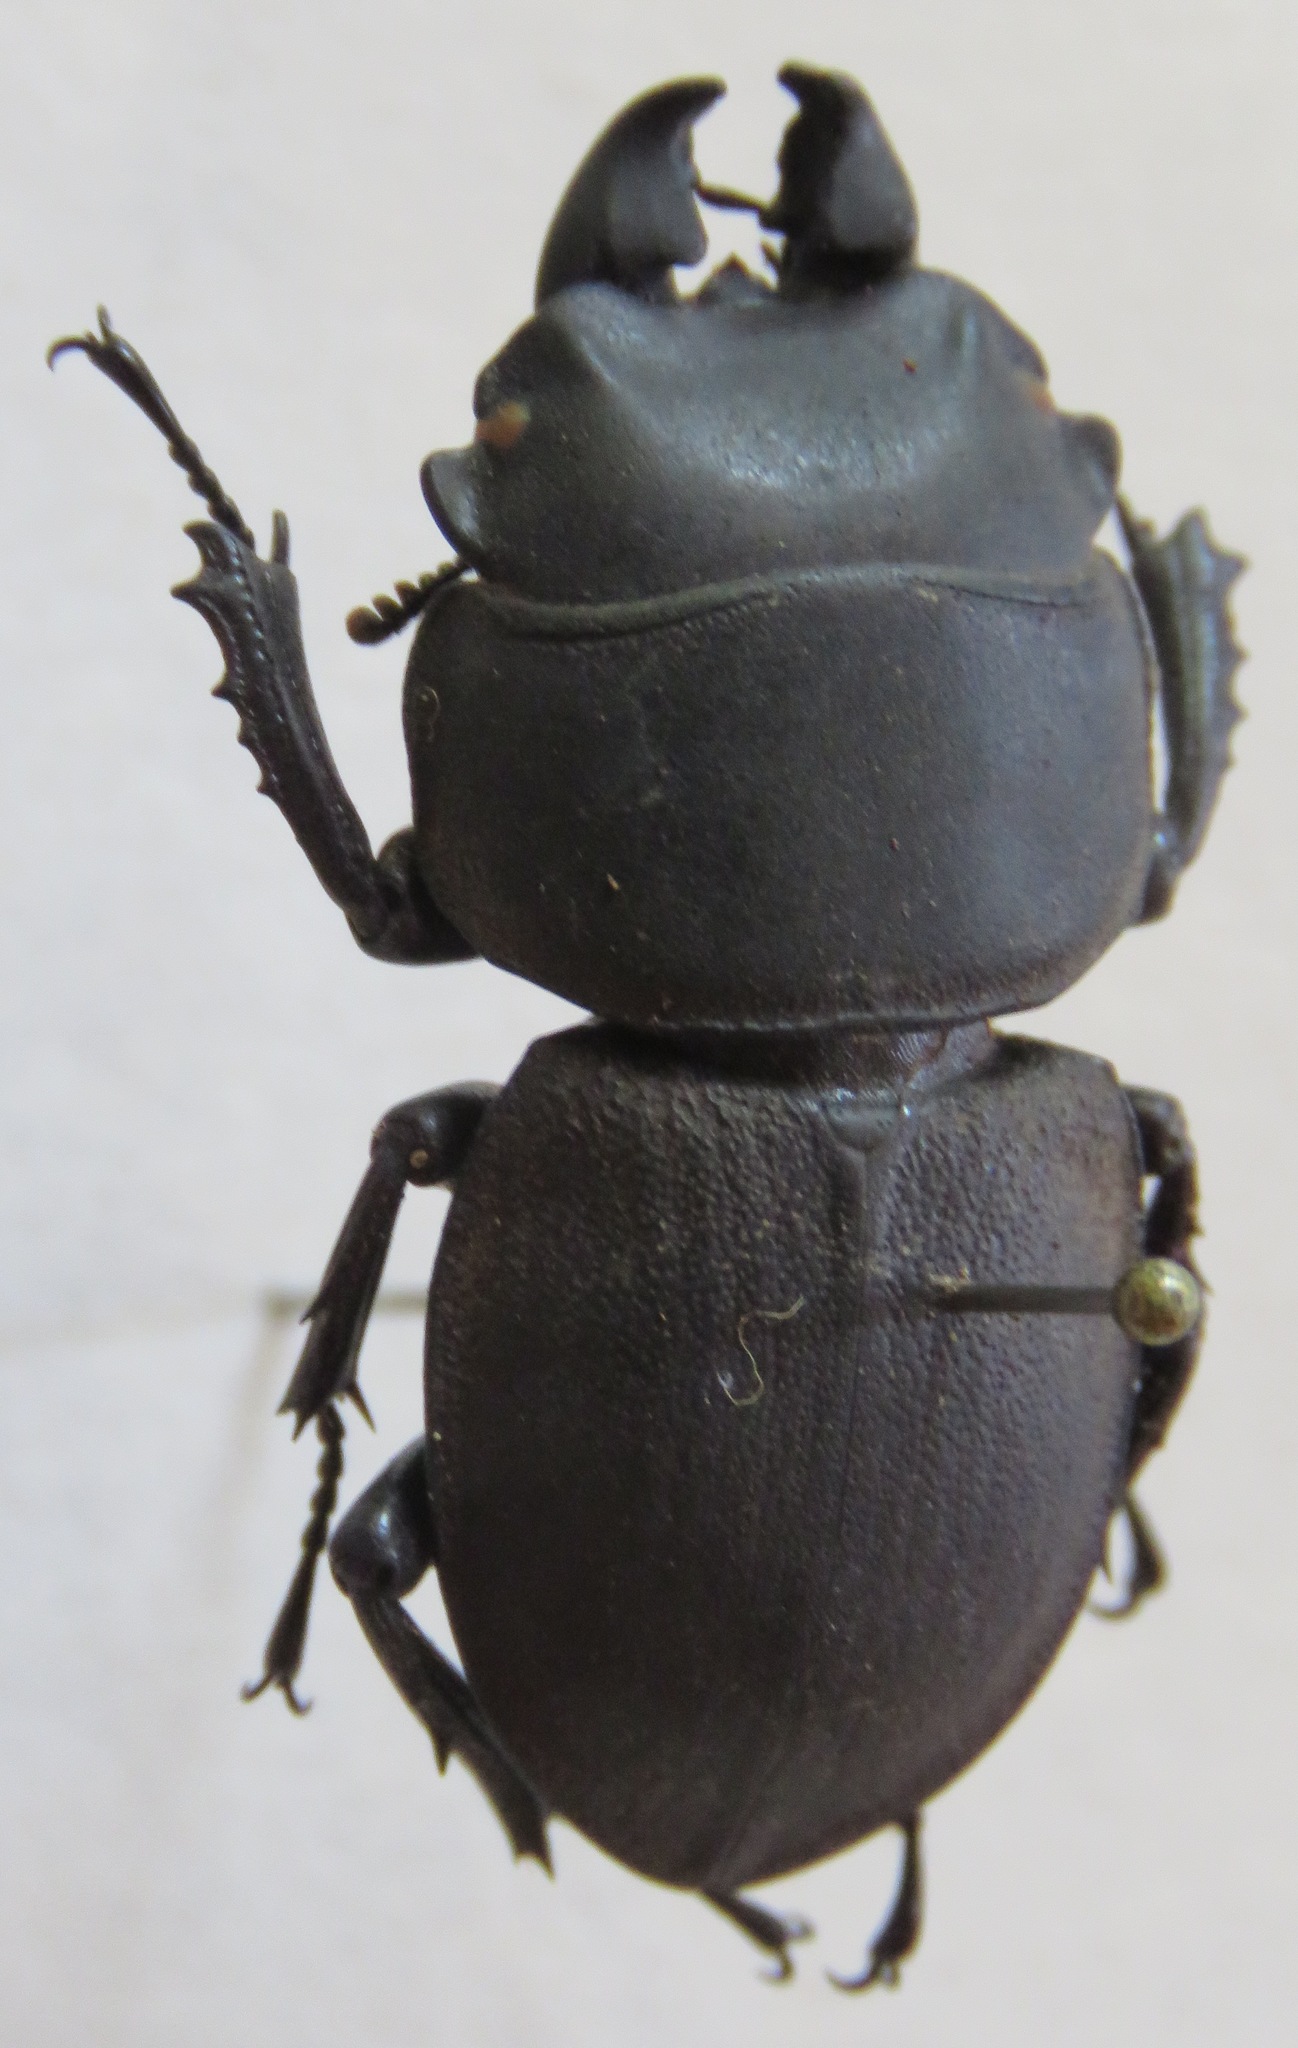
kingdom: Animalia
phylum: Arthropoda
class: Insecta
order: Coleoptera
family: Lucanidae
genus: Apterodorcus
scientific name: Apterodorcus bacchus
